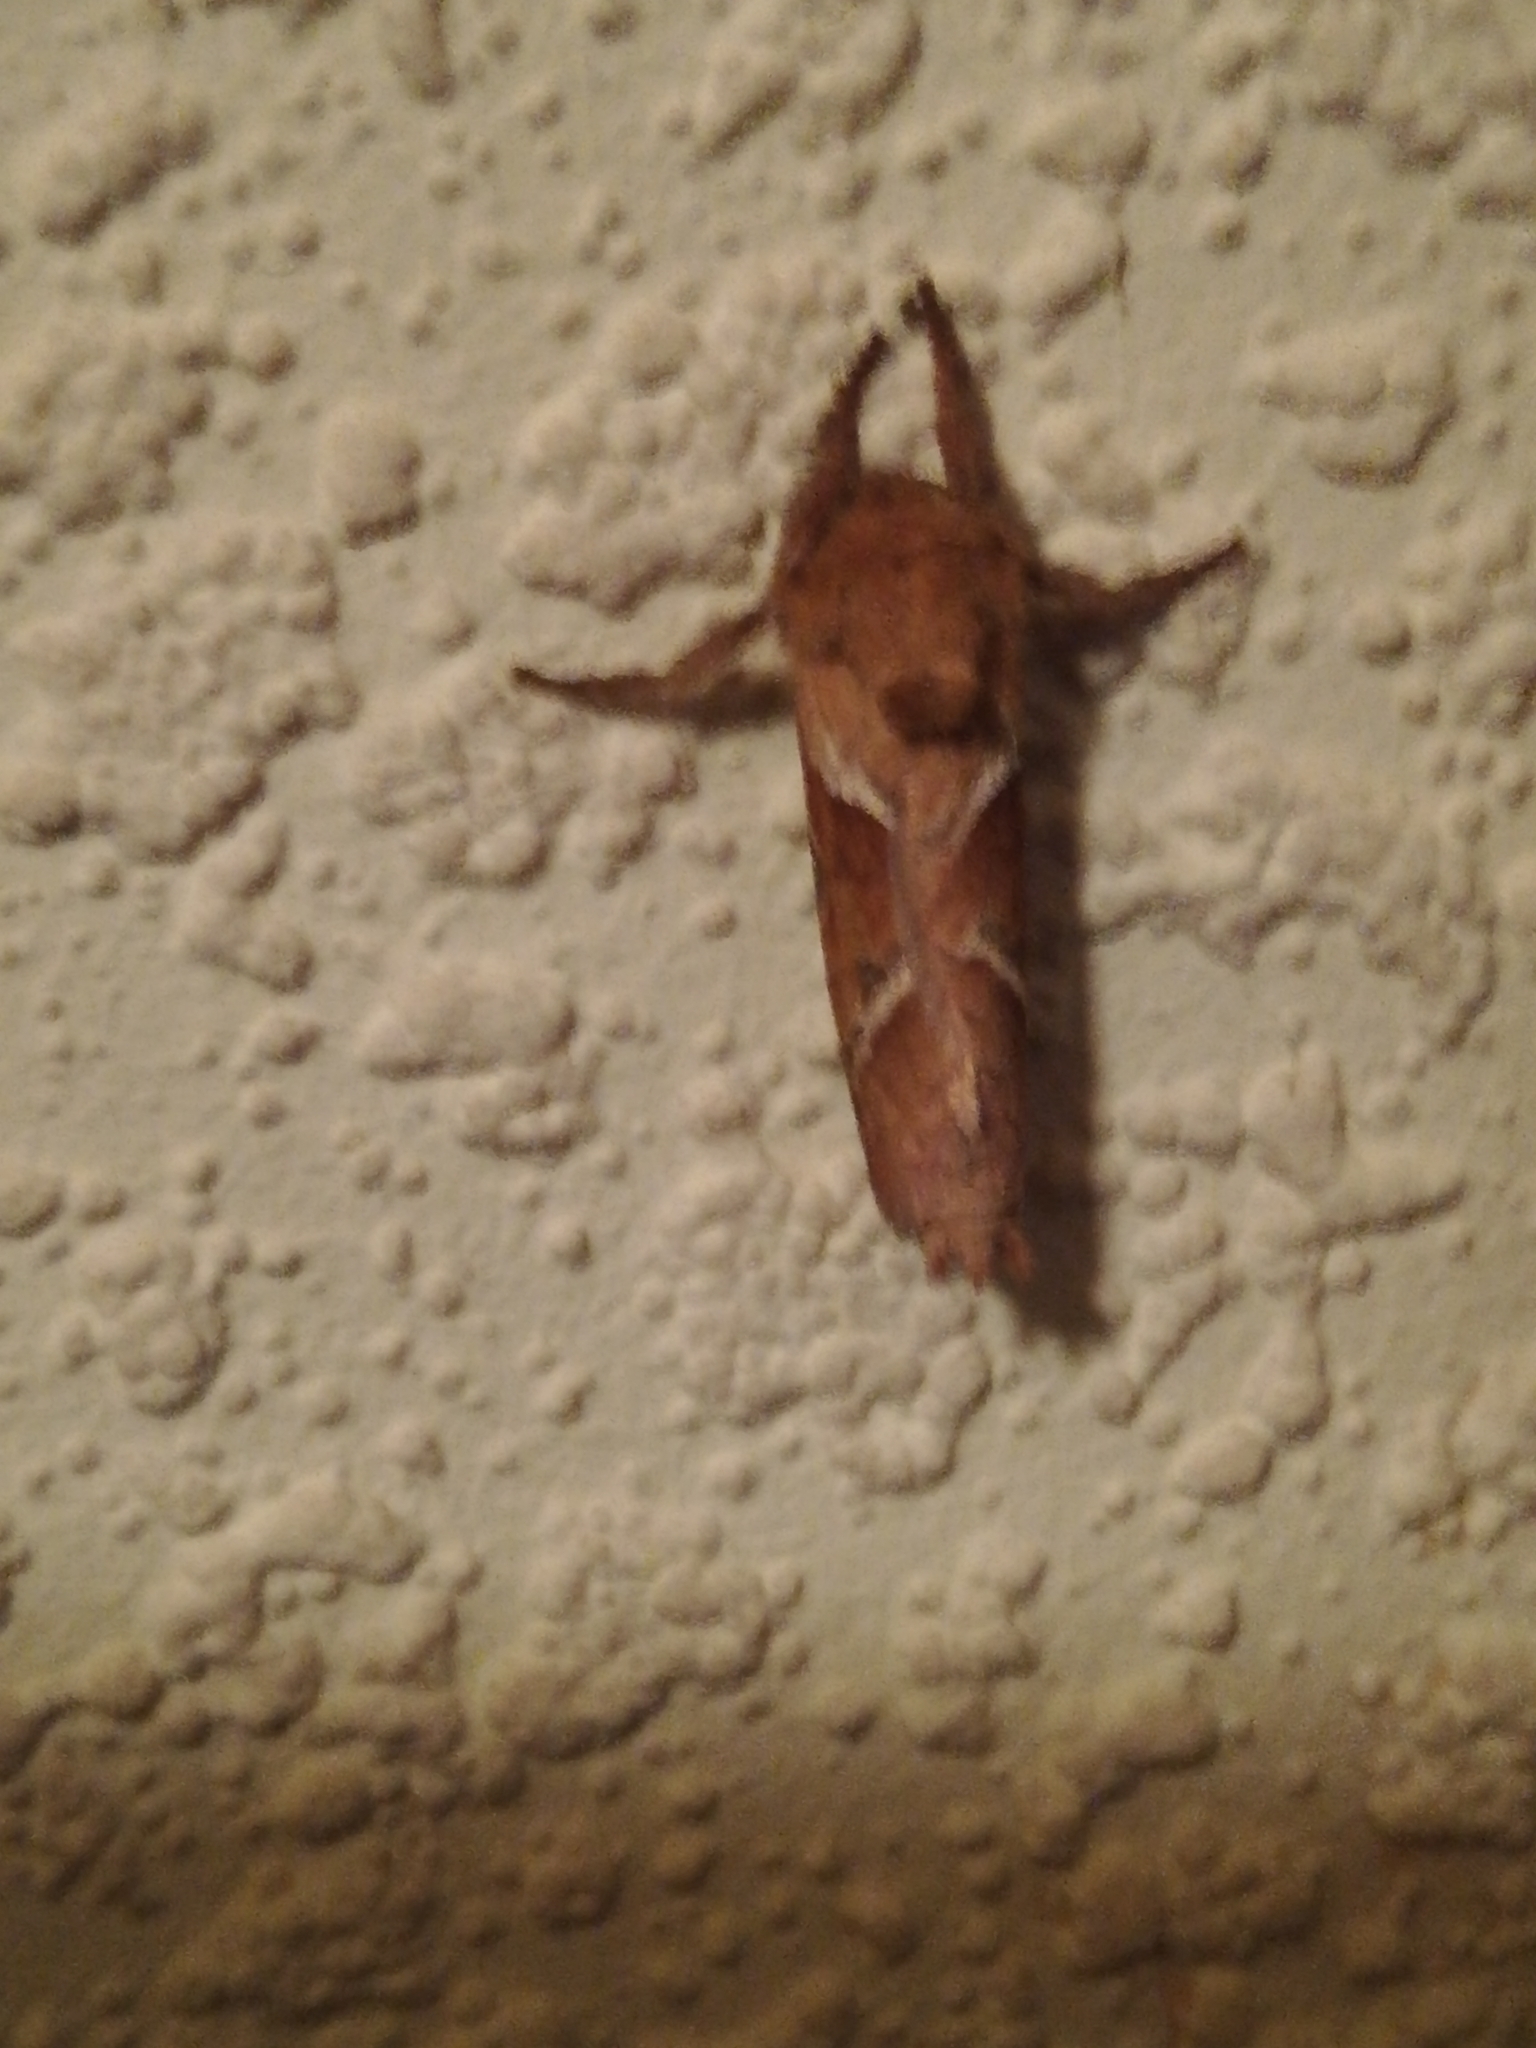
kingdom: Animalia
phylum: Arthropoda
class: Insecta
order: Lepidoptera
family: Hepialidae
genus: Triodia
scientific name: Triodia sylvina
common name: Orange swift
